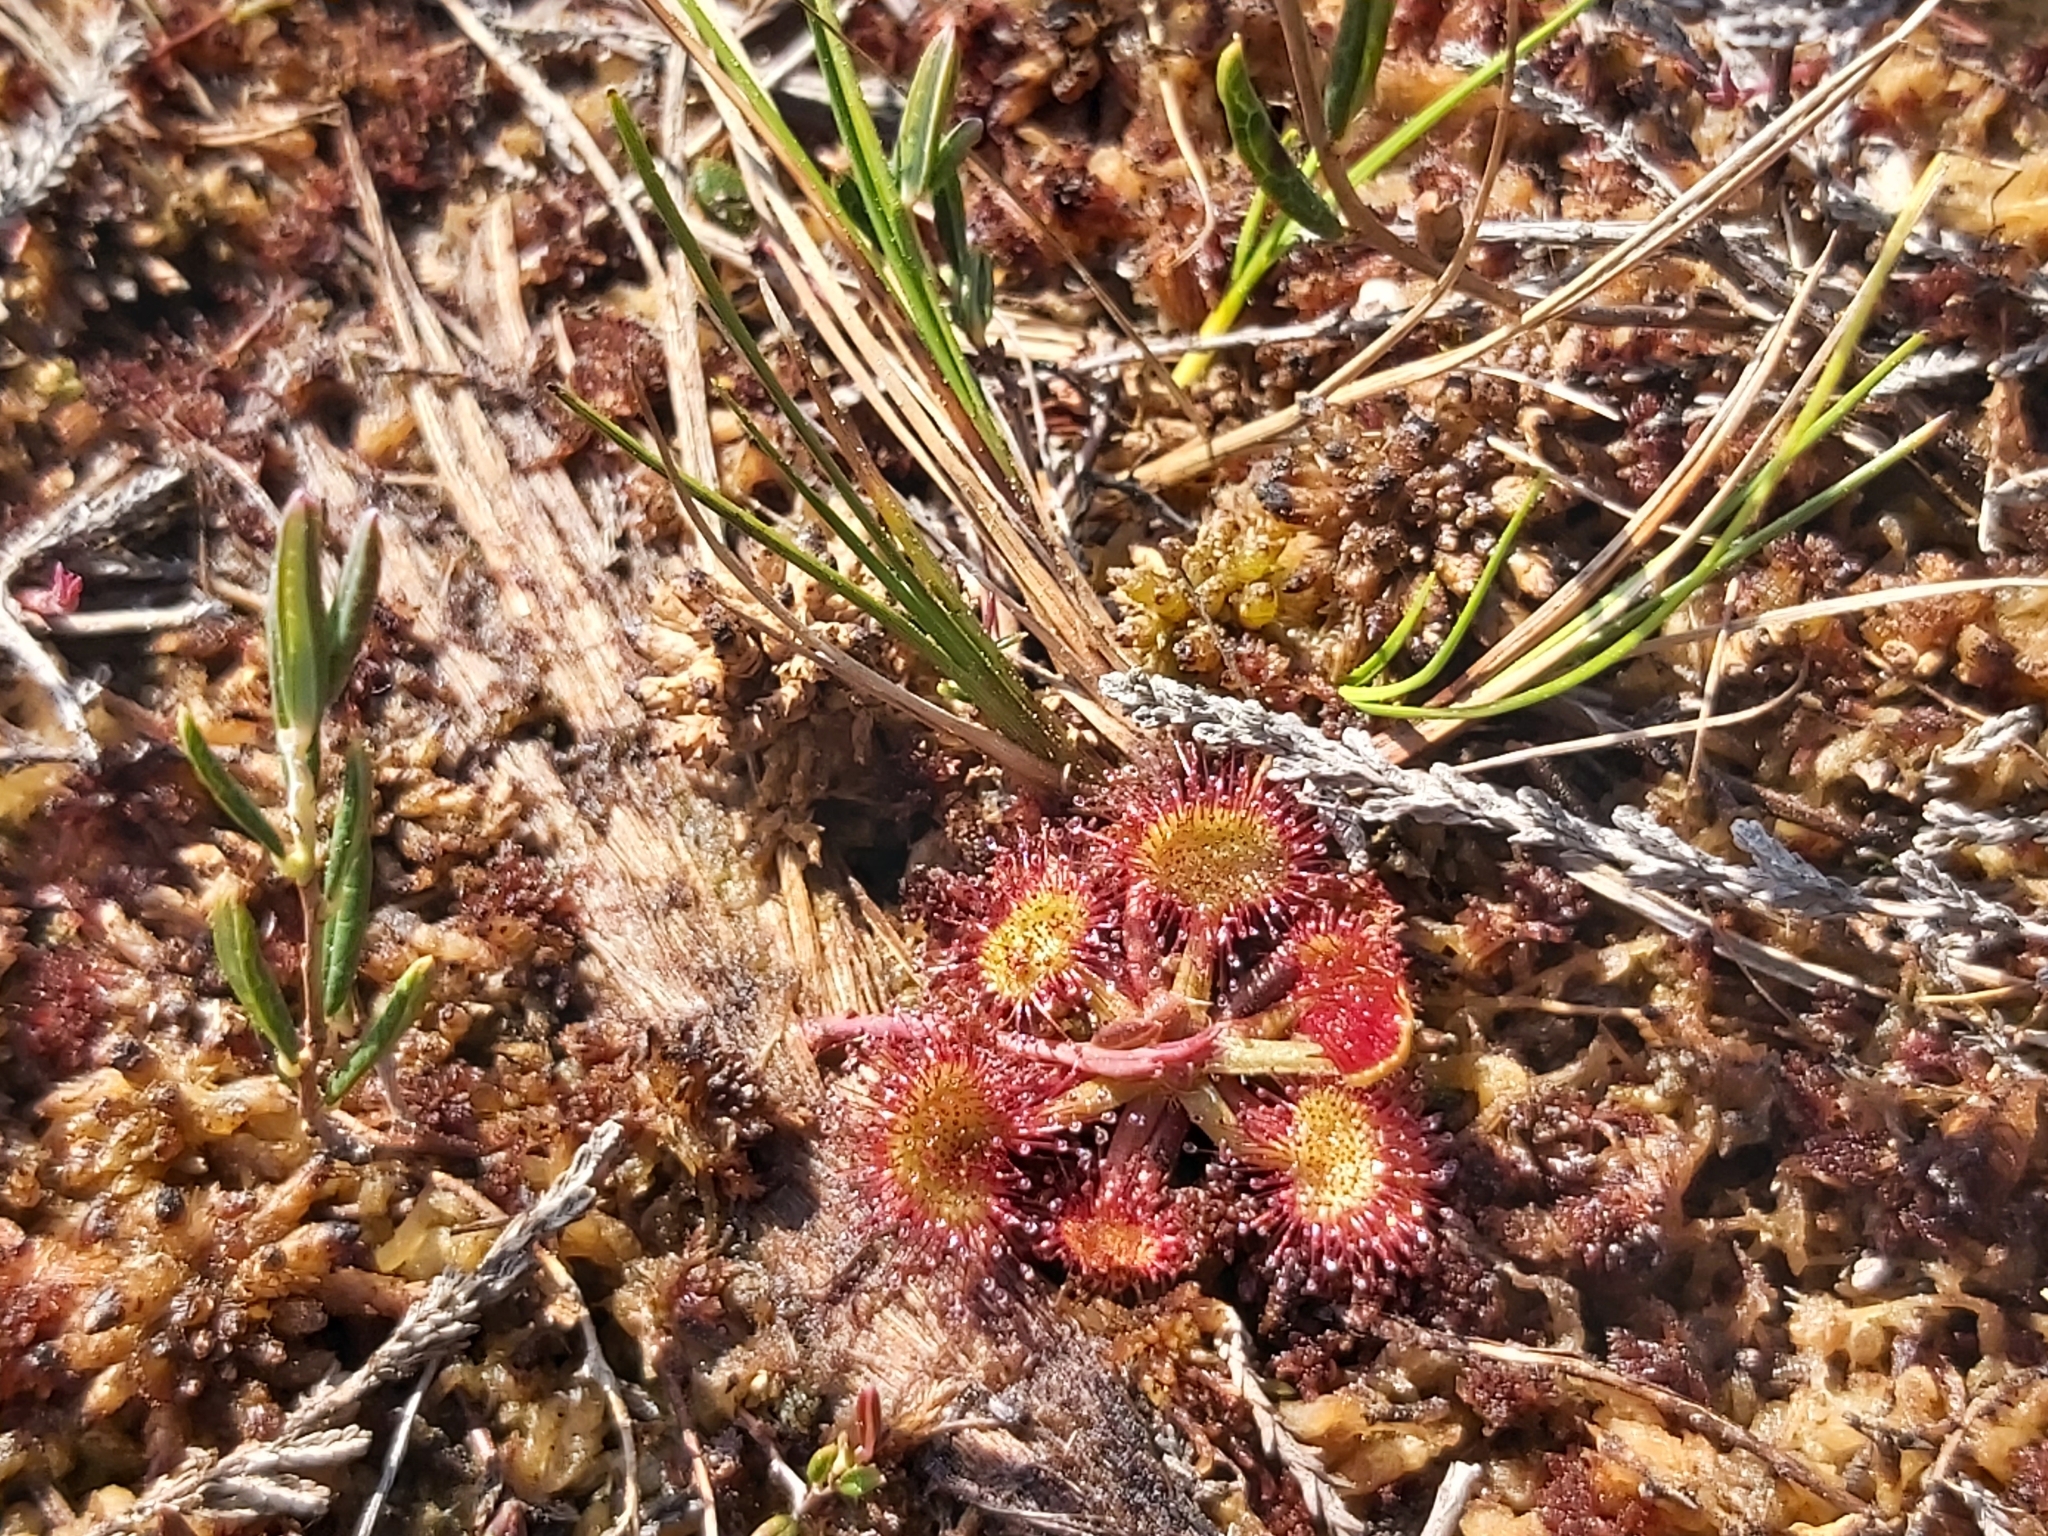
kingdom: Plantae
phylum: Tracheophyta
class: Magnoliopsida
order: Caryophyllales
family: Droseraceae
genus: Drosera
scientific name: Drosera rotundifolia
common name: Round-leaved sundew
